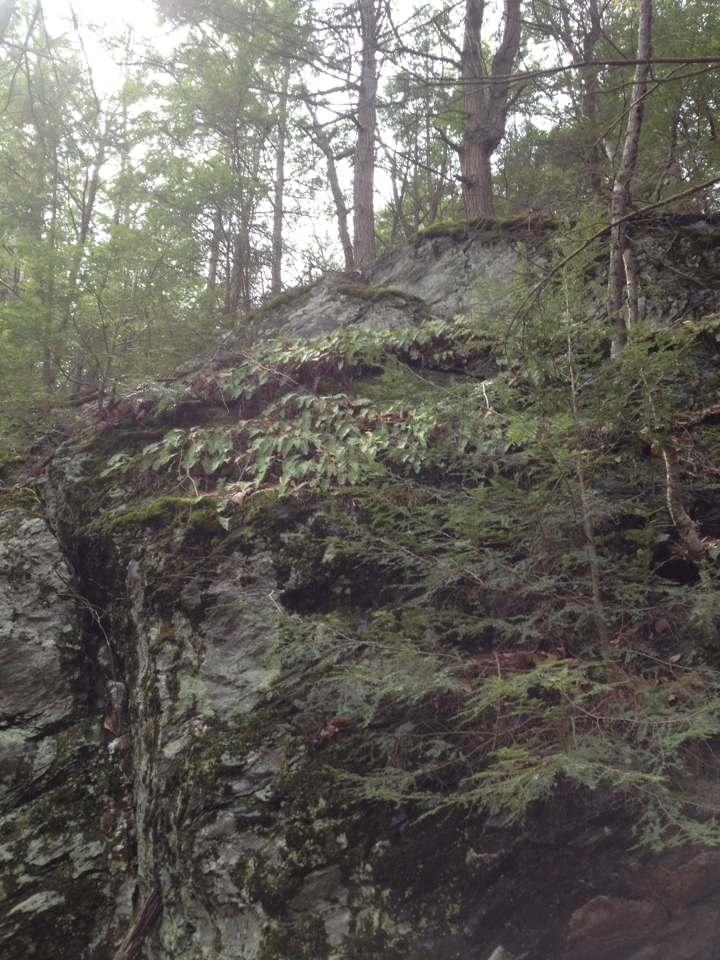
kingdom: Plantae
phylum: Tracheophyta
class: Polypodiopsida
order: Polypodiales
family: Polypodiaceae
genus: Polypodium
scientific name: Polypodium virginianum
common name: American wall fern
